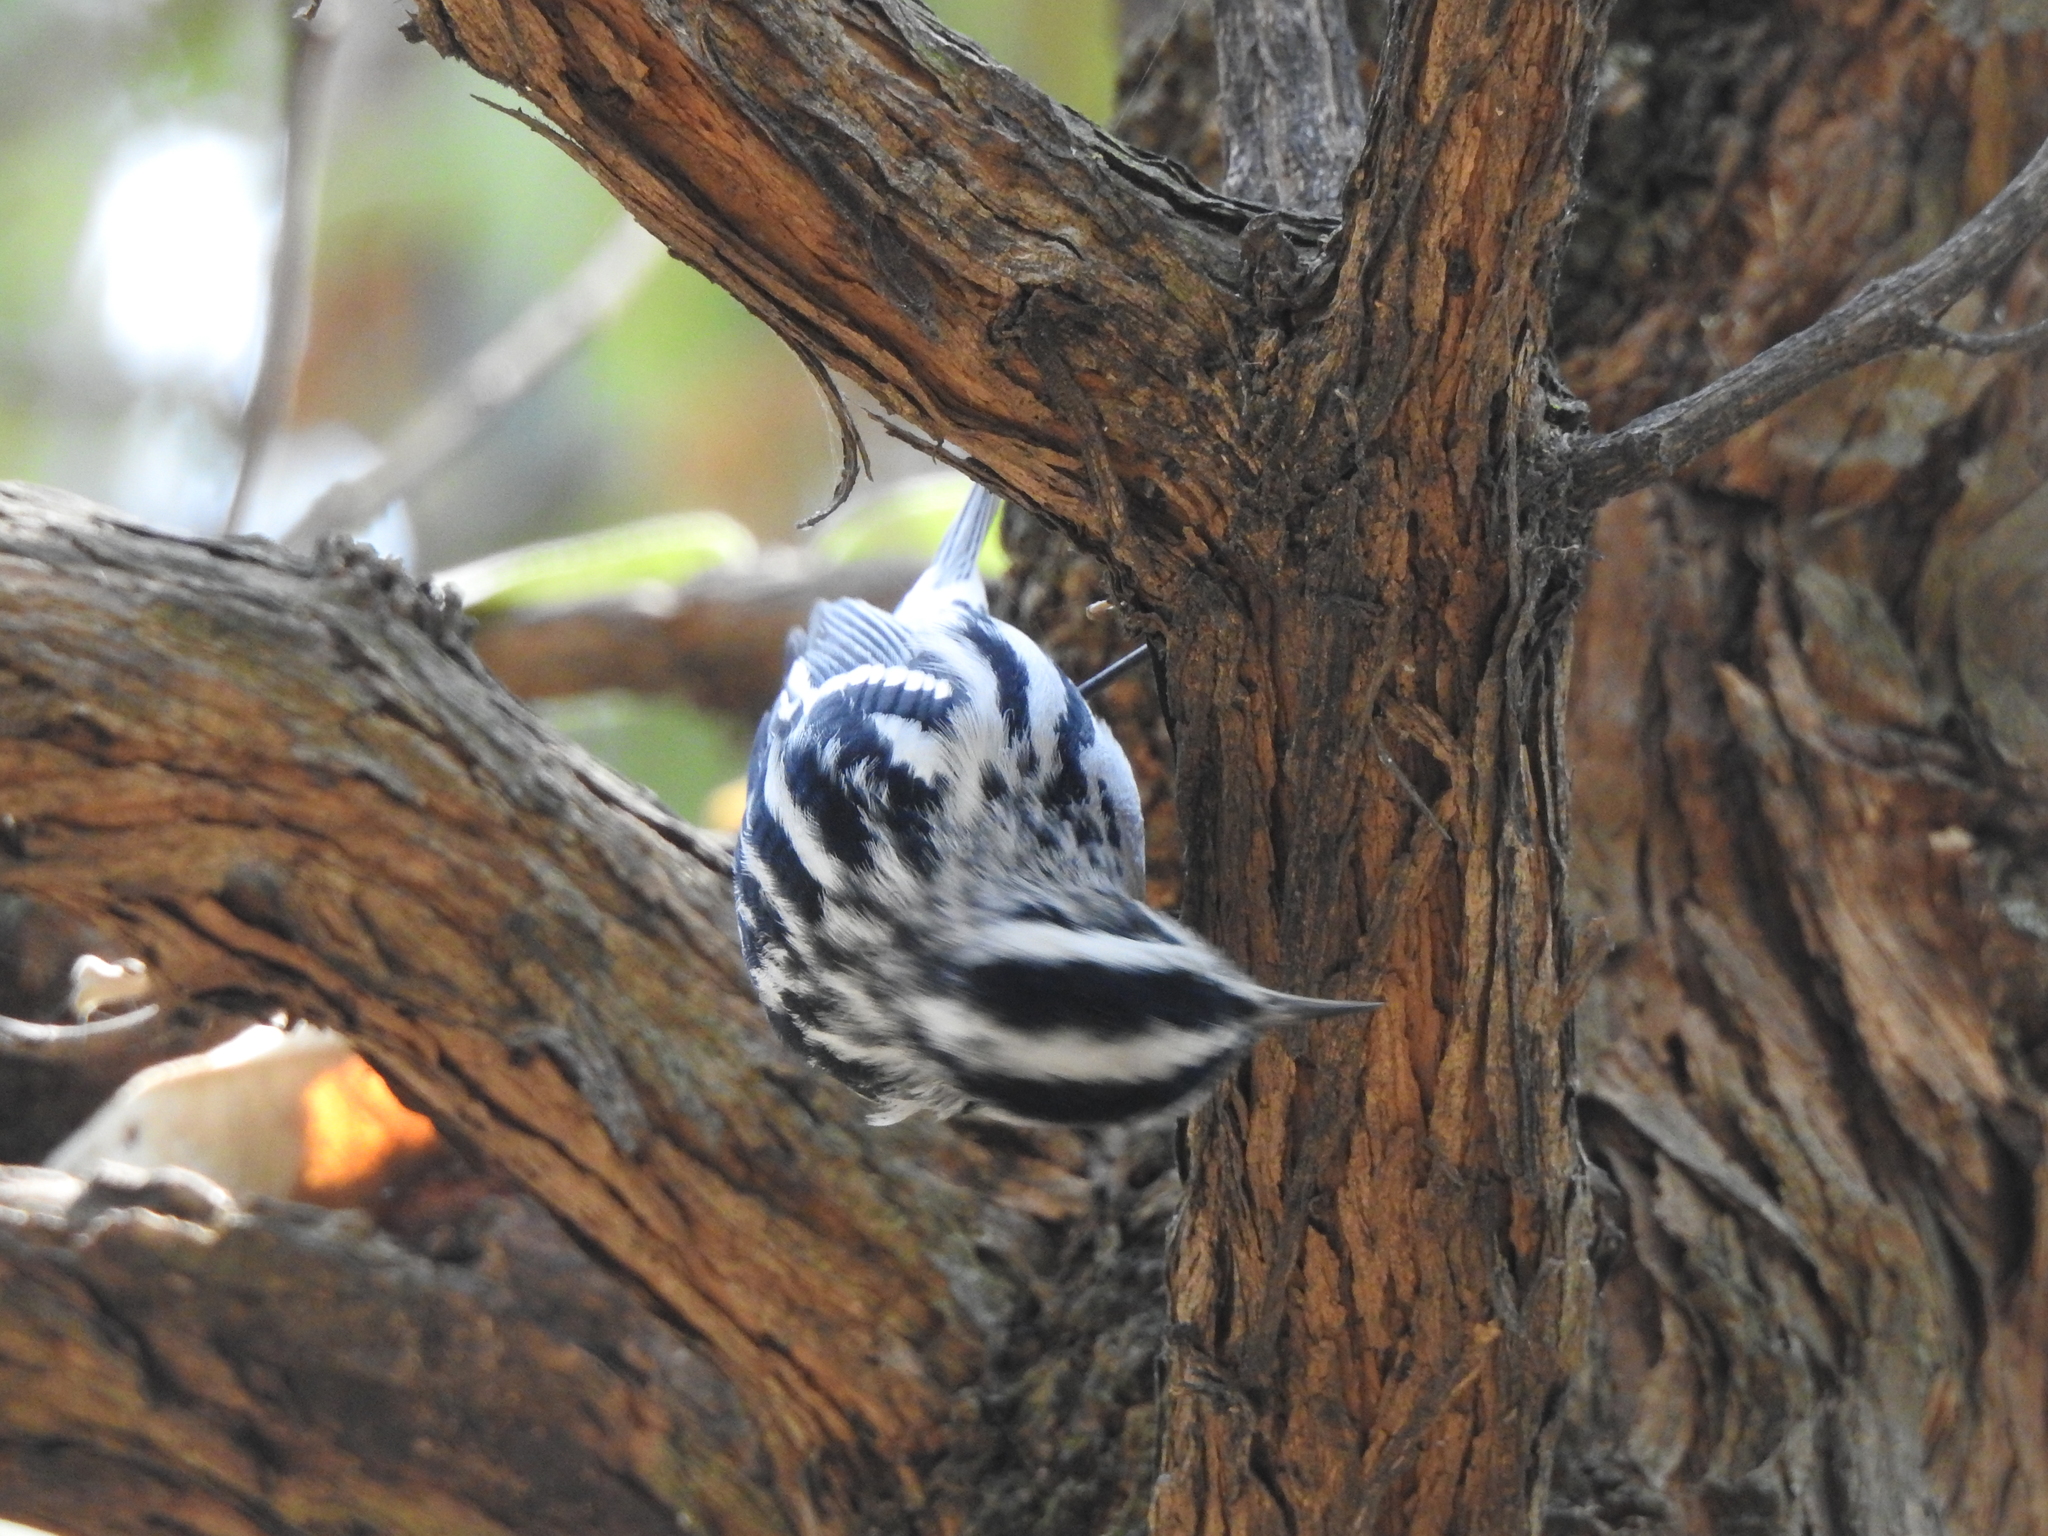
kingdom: Animalia
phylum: Chordata
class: Aves
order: Passeriformes
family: Parulidae
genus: Mniotilta
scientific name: Mniotilta varia
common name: Black-and-white warbler
